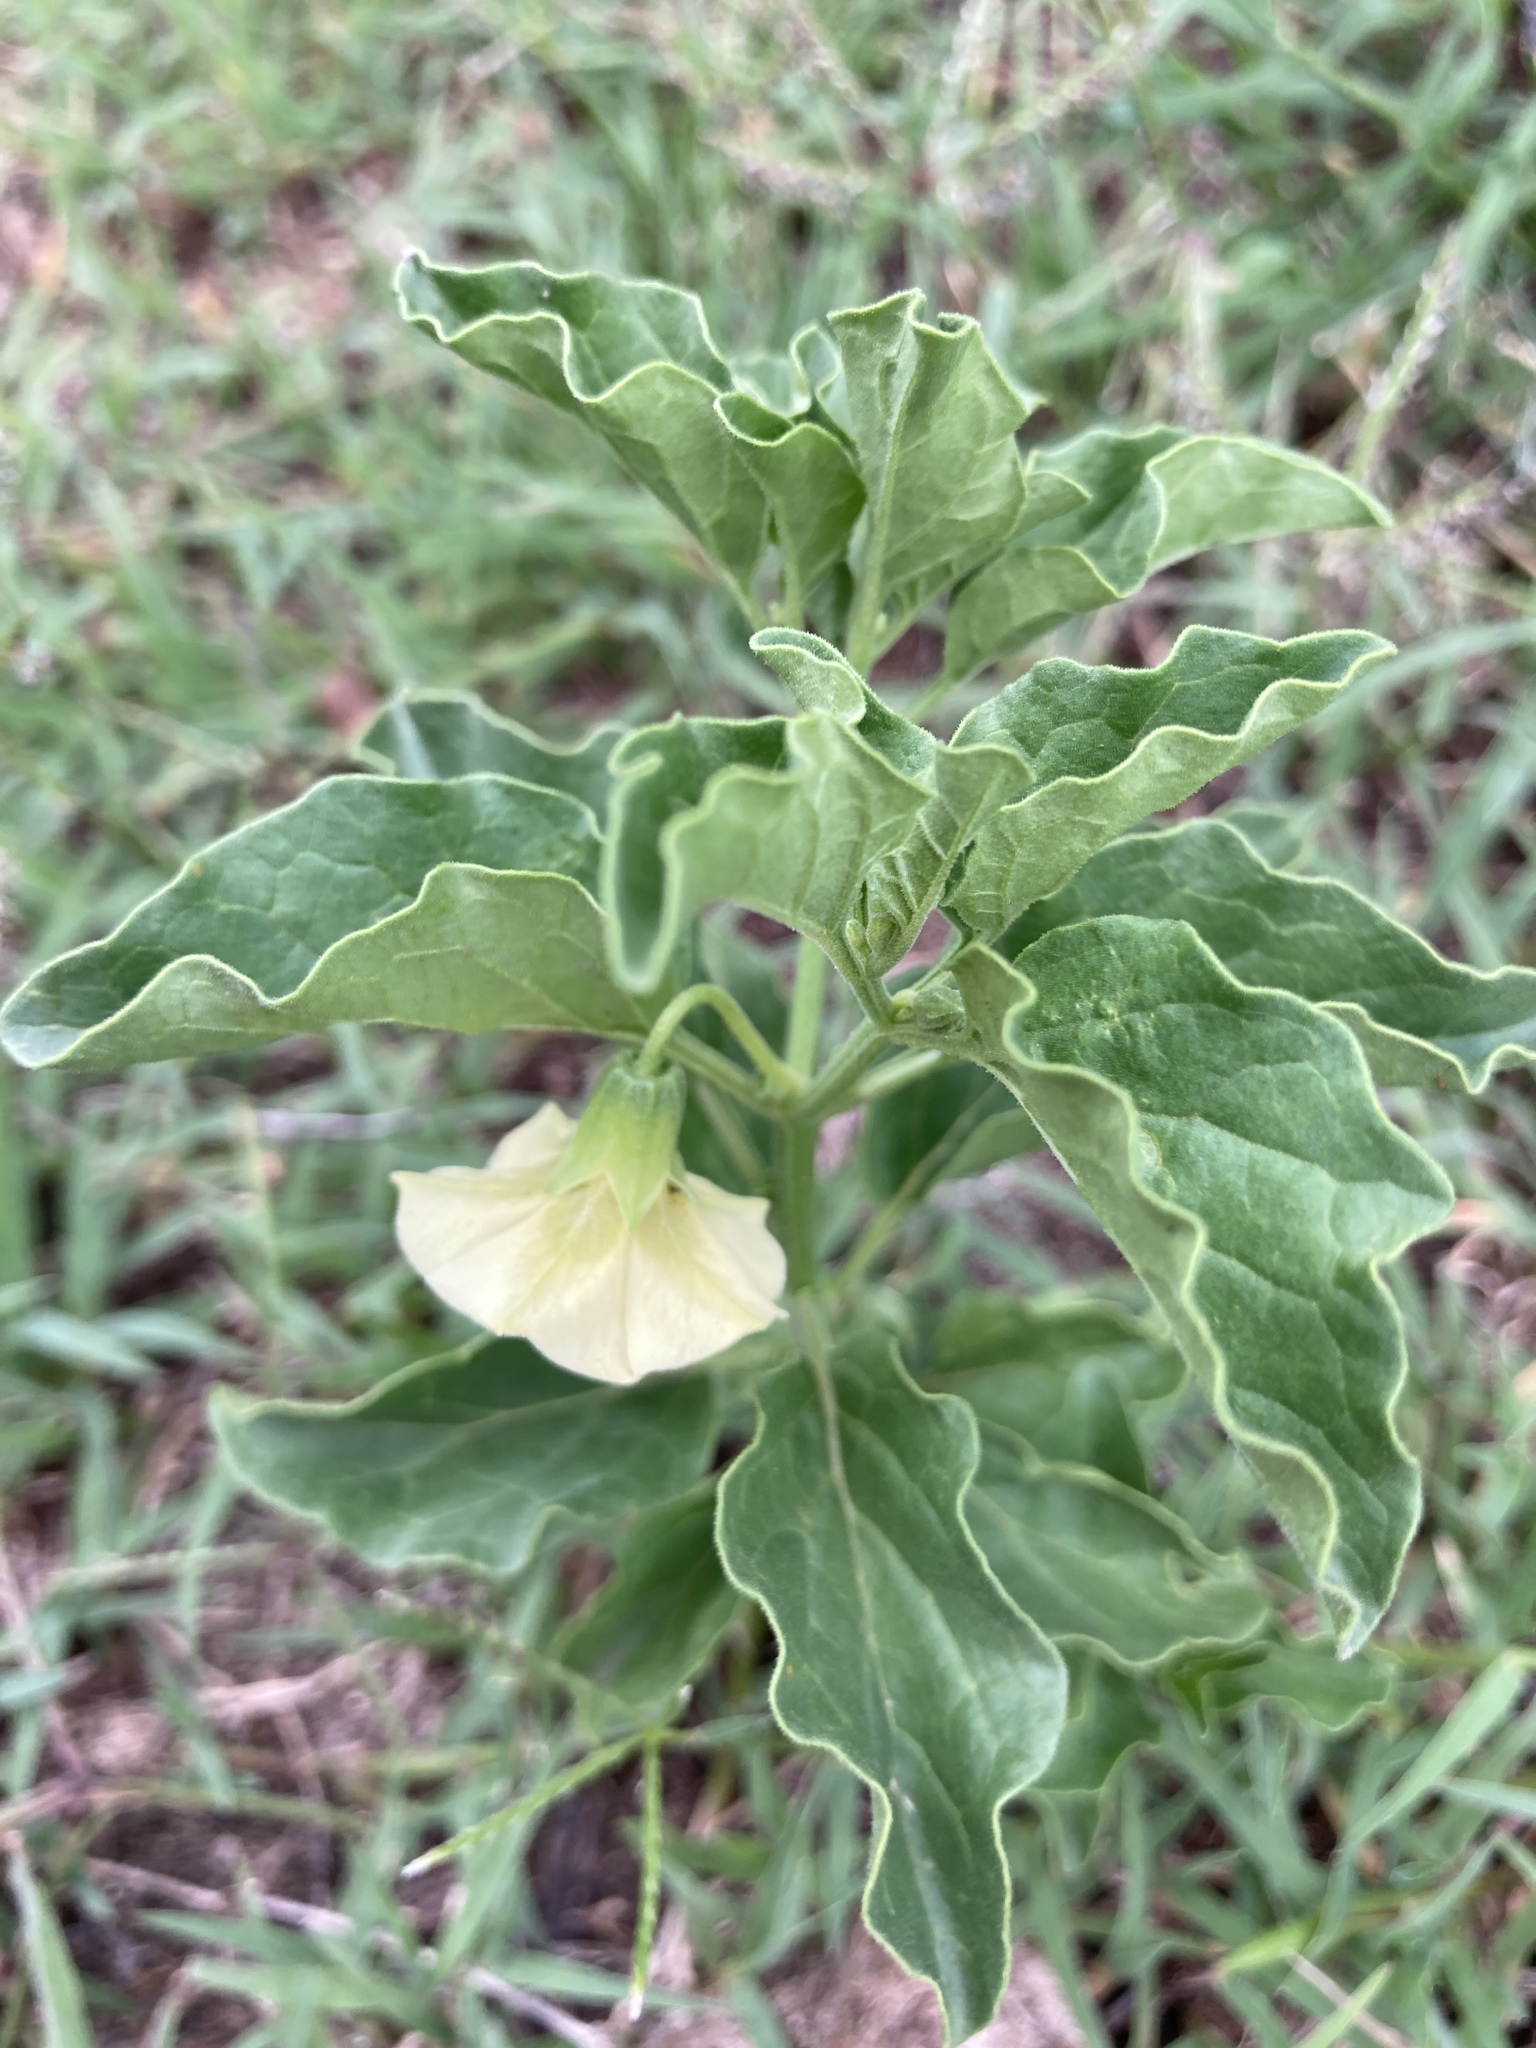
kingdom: Plantae
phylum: Tracheophyta
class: Magnoliopsida
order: Solanales
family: Solanaceae
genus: Physalis
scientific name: Physalis viscosa
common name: Stellate ground-cherry
